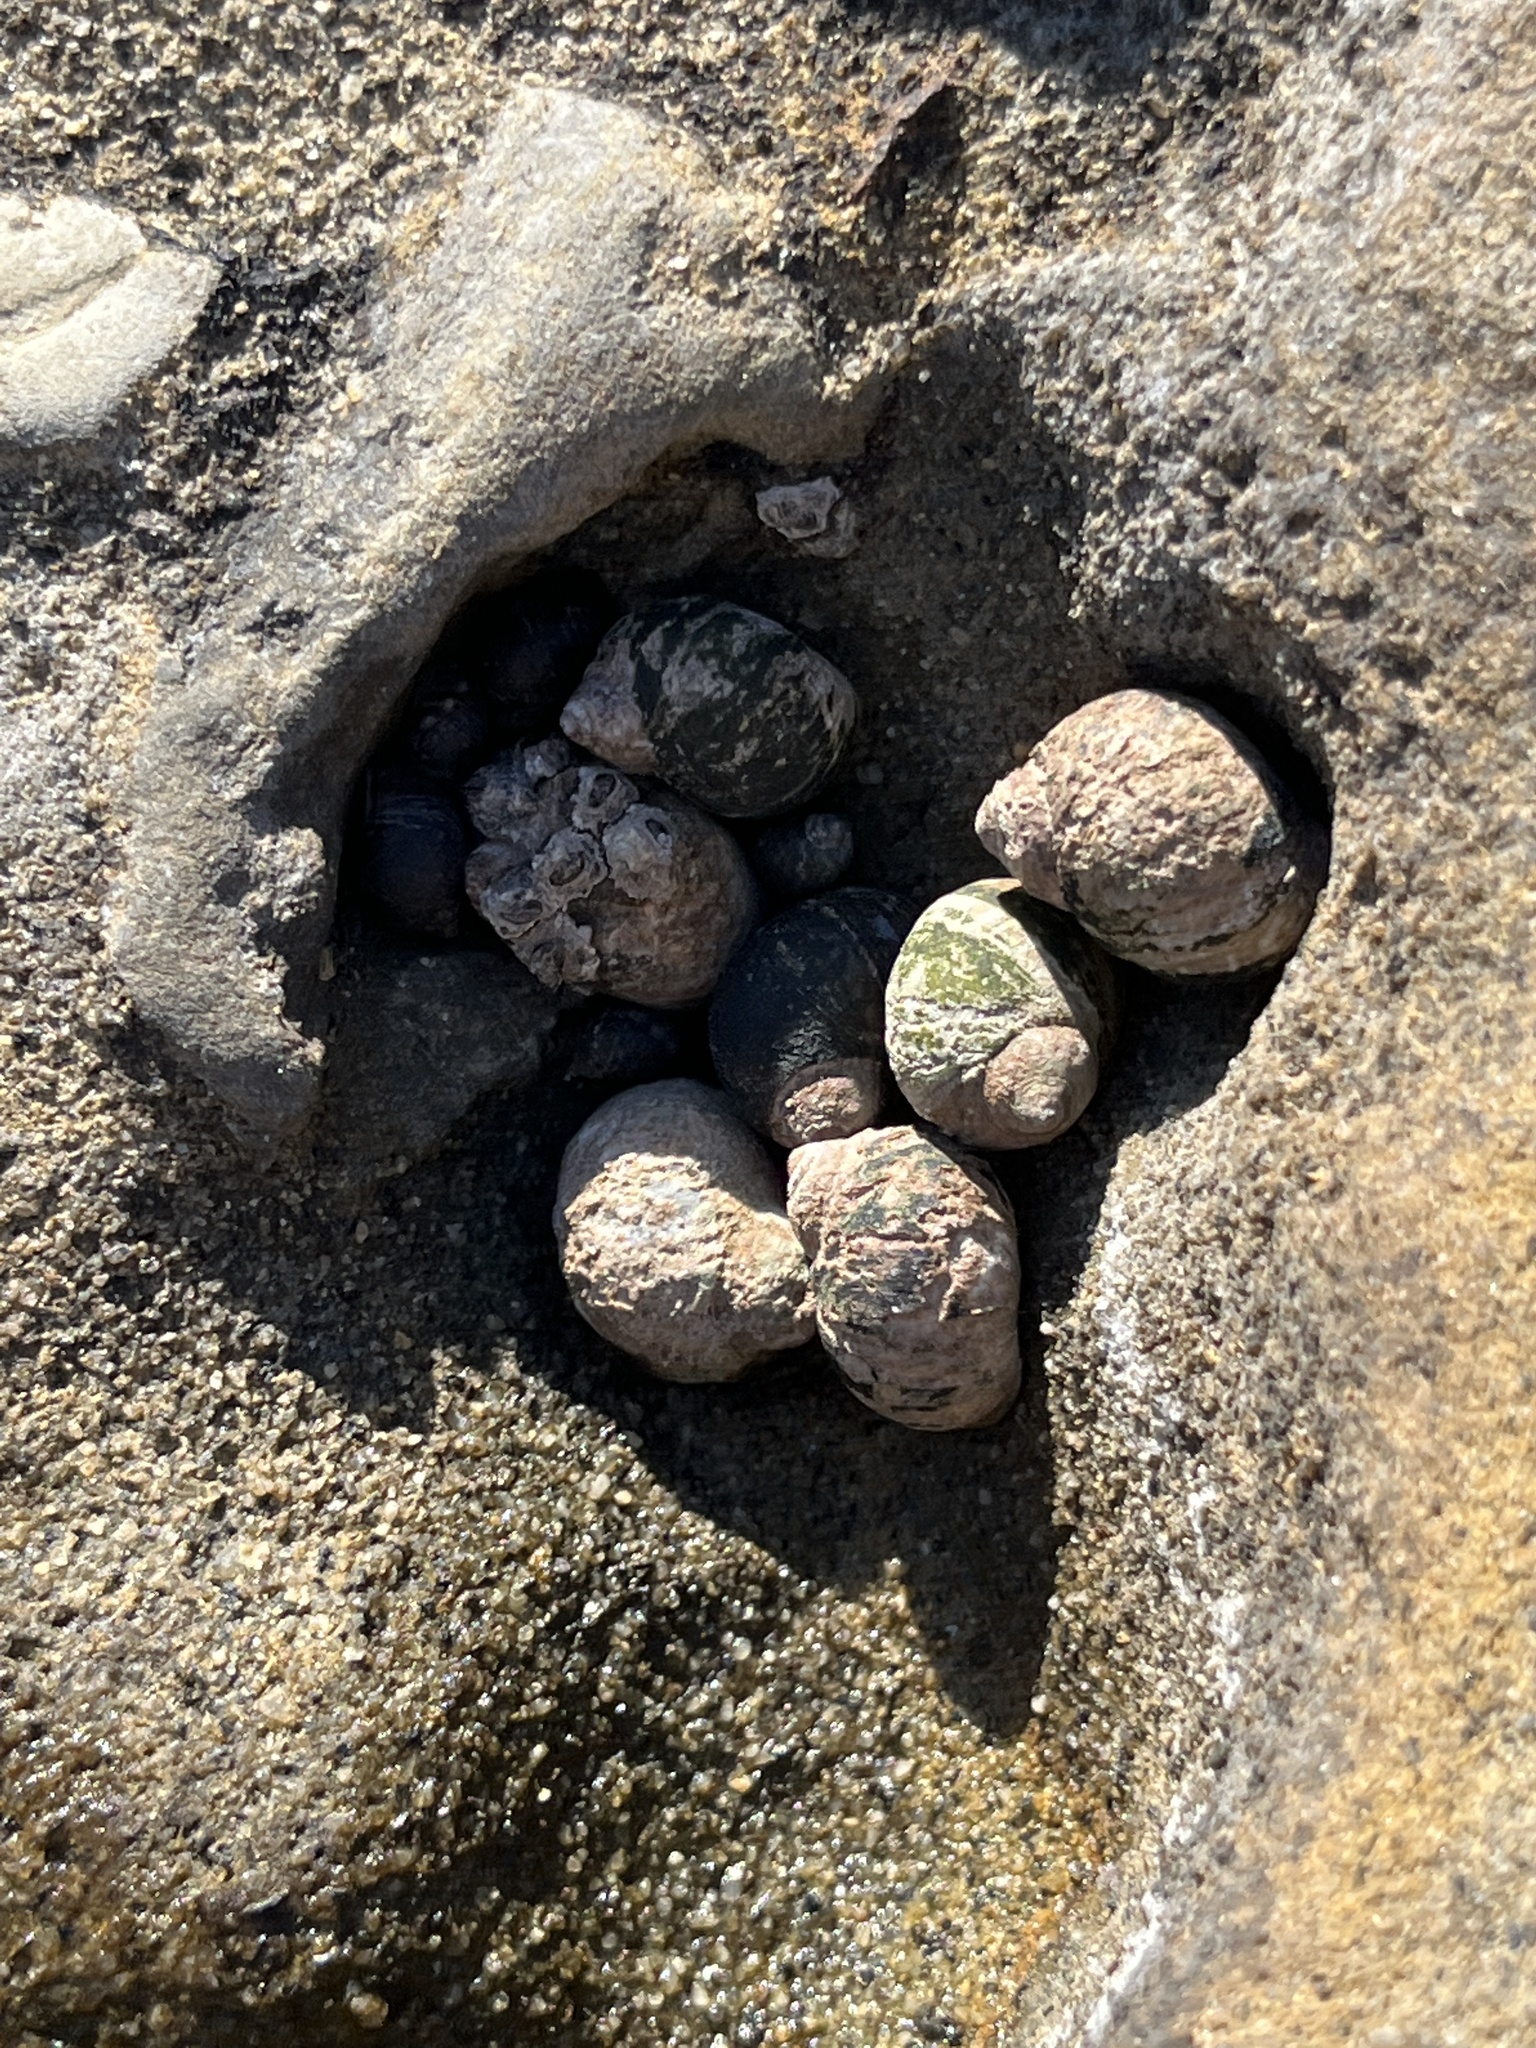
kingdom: Animalia
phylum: Mollusca
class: Gastropoda
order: Littorinimorpha
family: Littorinidae
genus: Littorina
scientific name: Littorina keenae
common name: Eroded periwinkle
